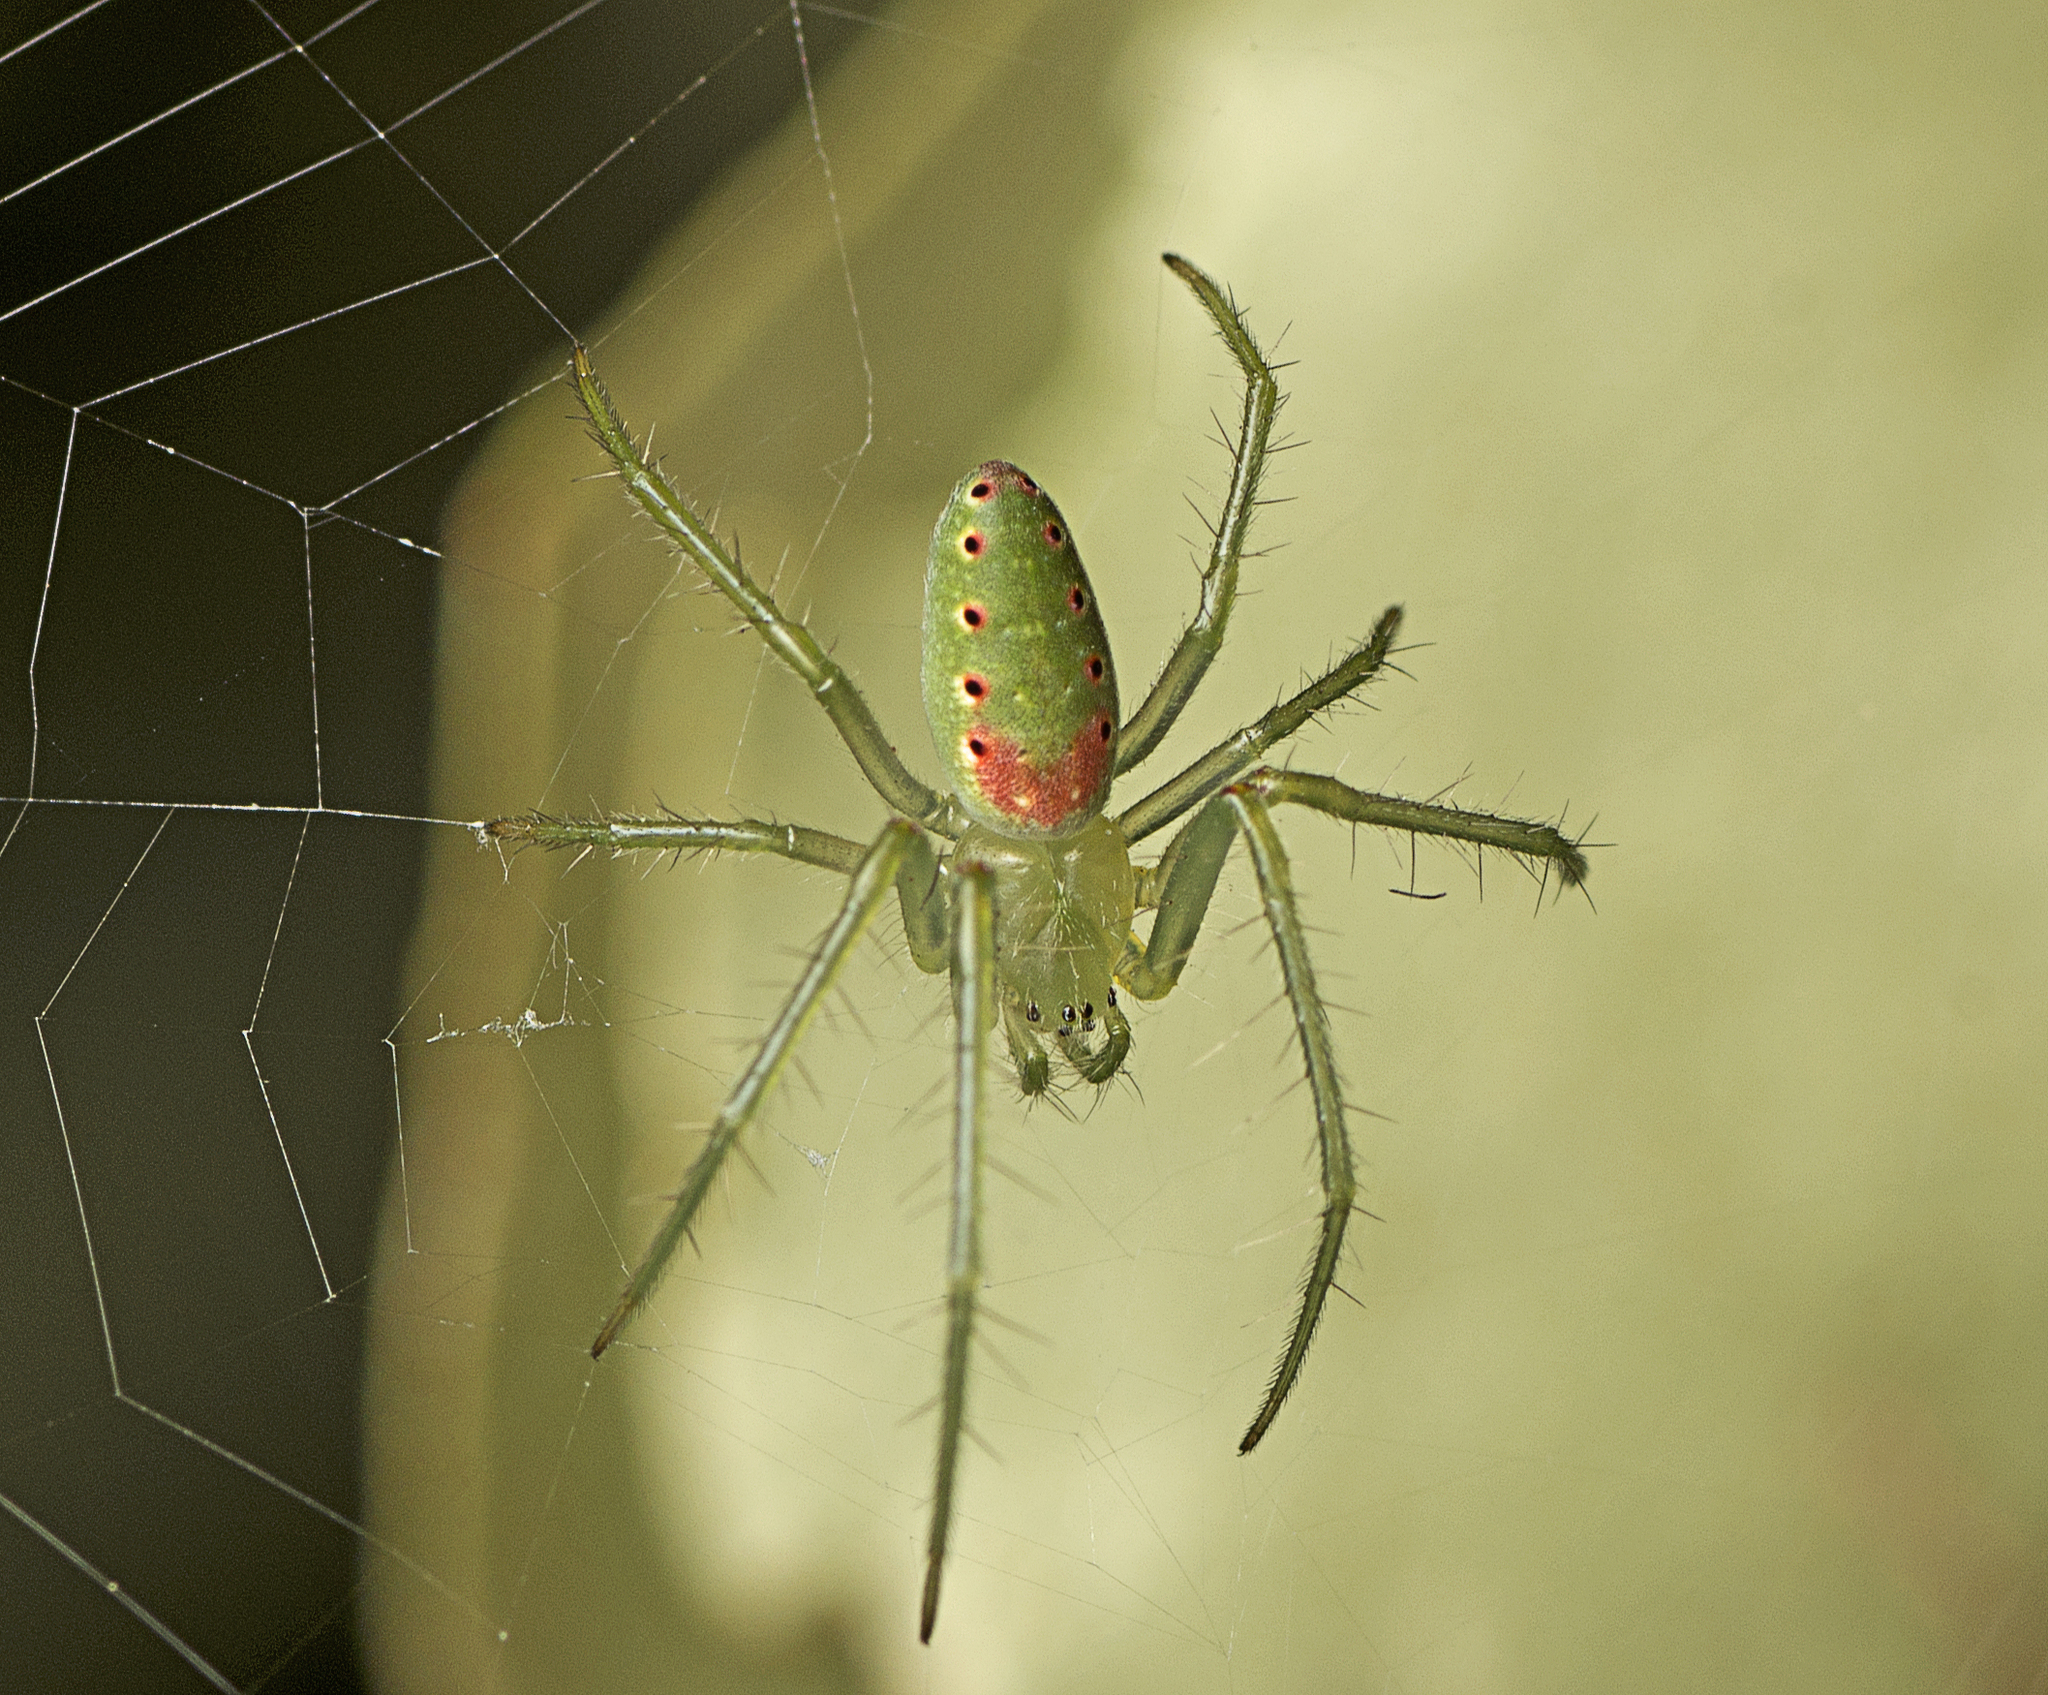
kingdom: Animalia
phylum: Arthropoda
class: Arachnida
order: Araneae
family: Araneidae
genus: Araneus
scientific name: Araneus talipedatus
